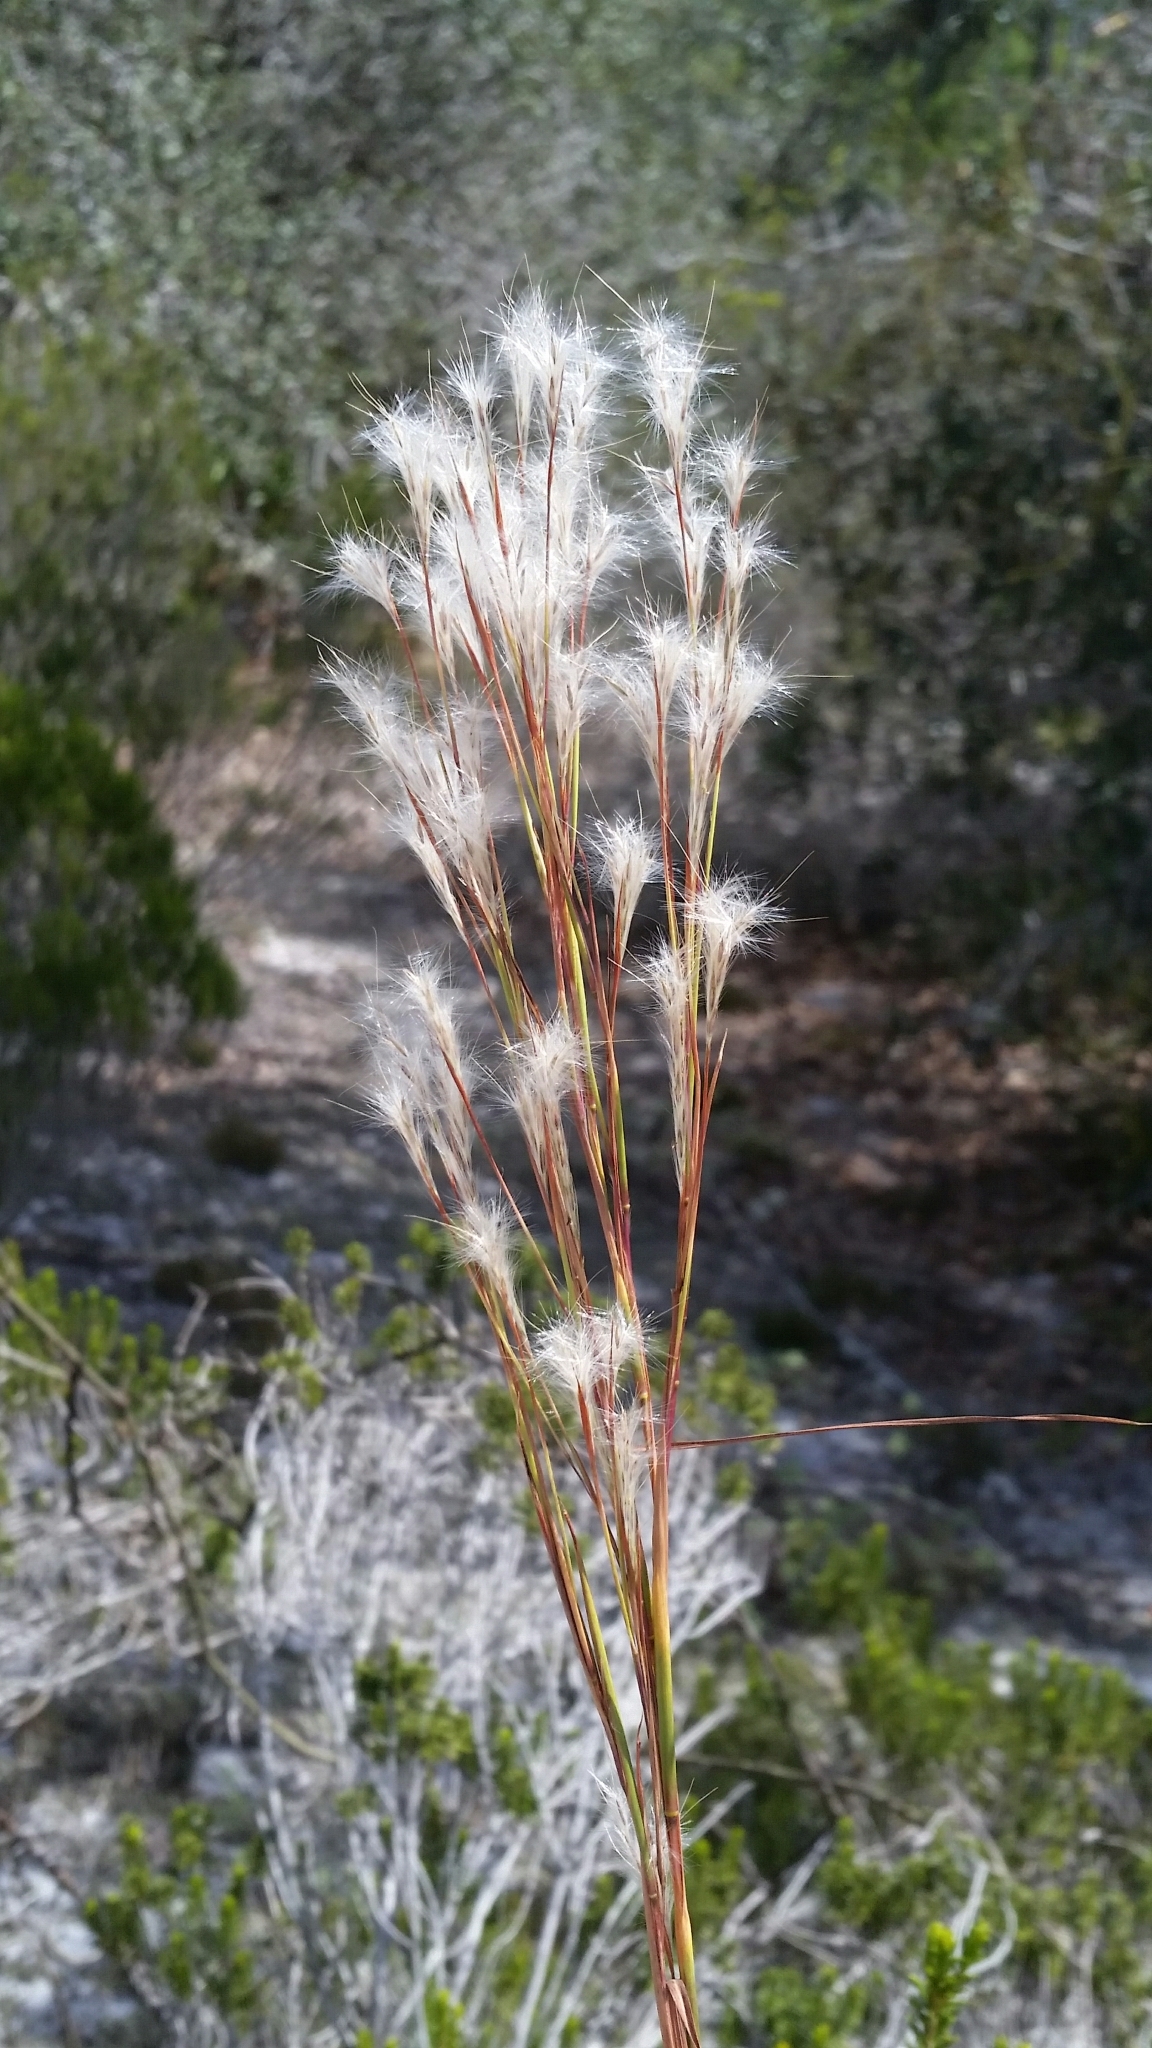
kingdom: Plantae
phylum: Tracheophyta
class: Liliopsida
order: Poales
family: Poaceae
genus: Andropogon
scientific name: Andropogon floridanus
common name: Florida bluestem
